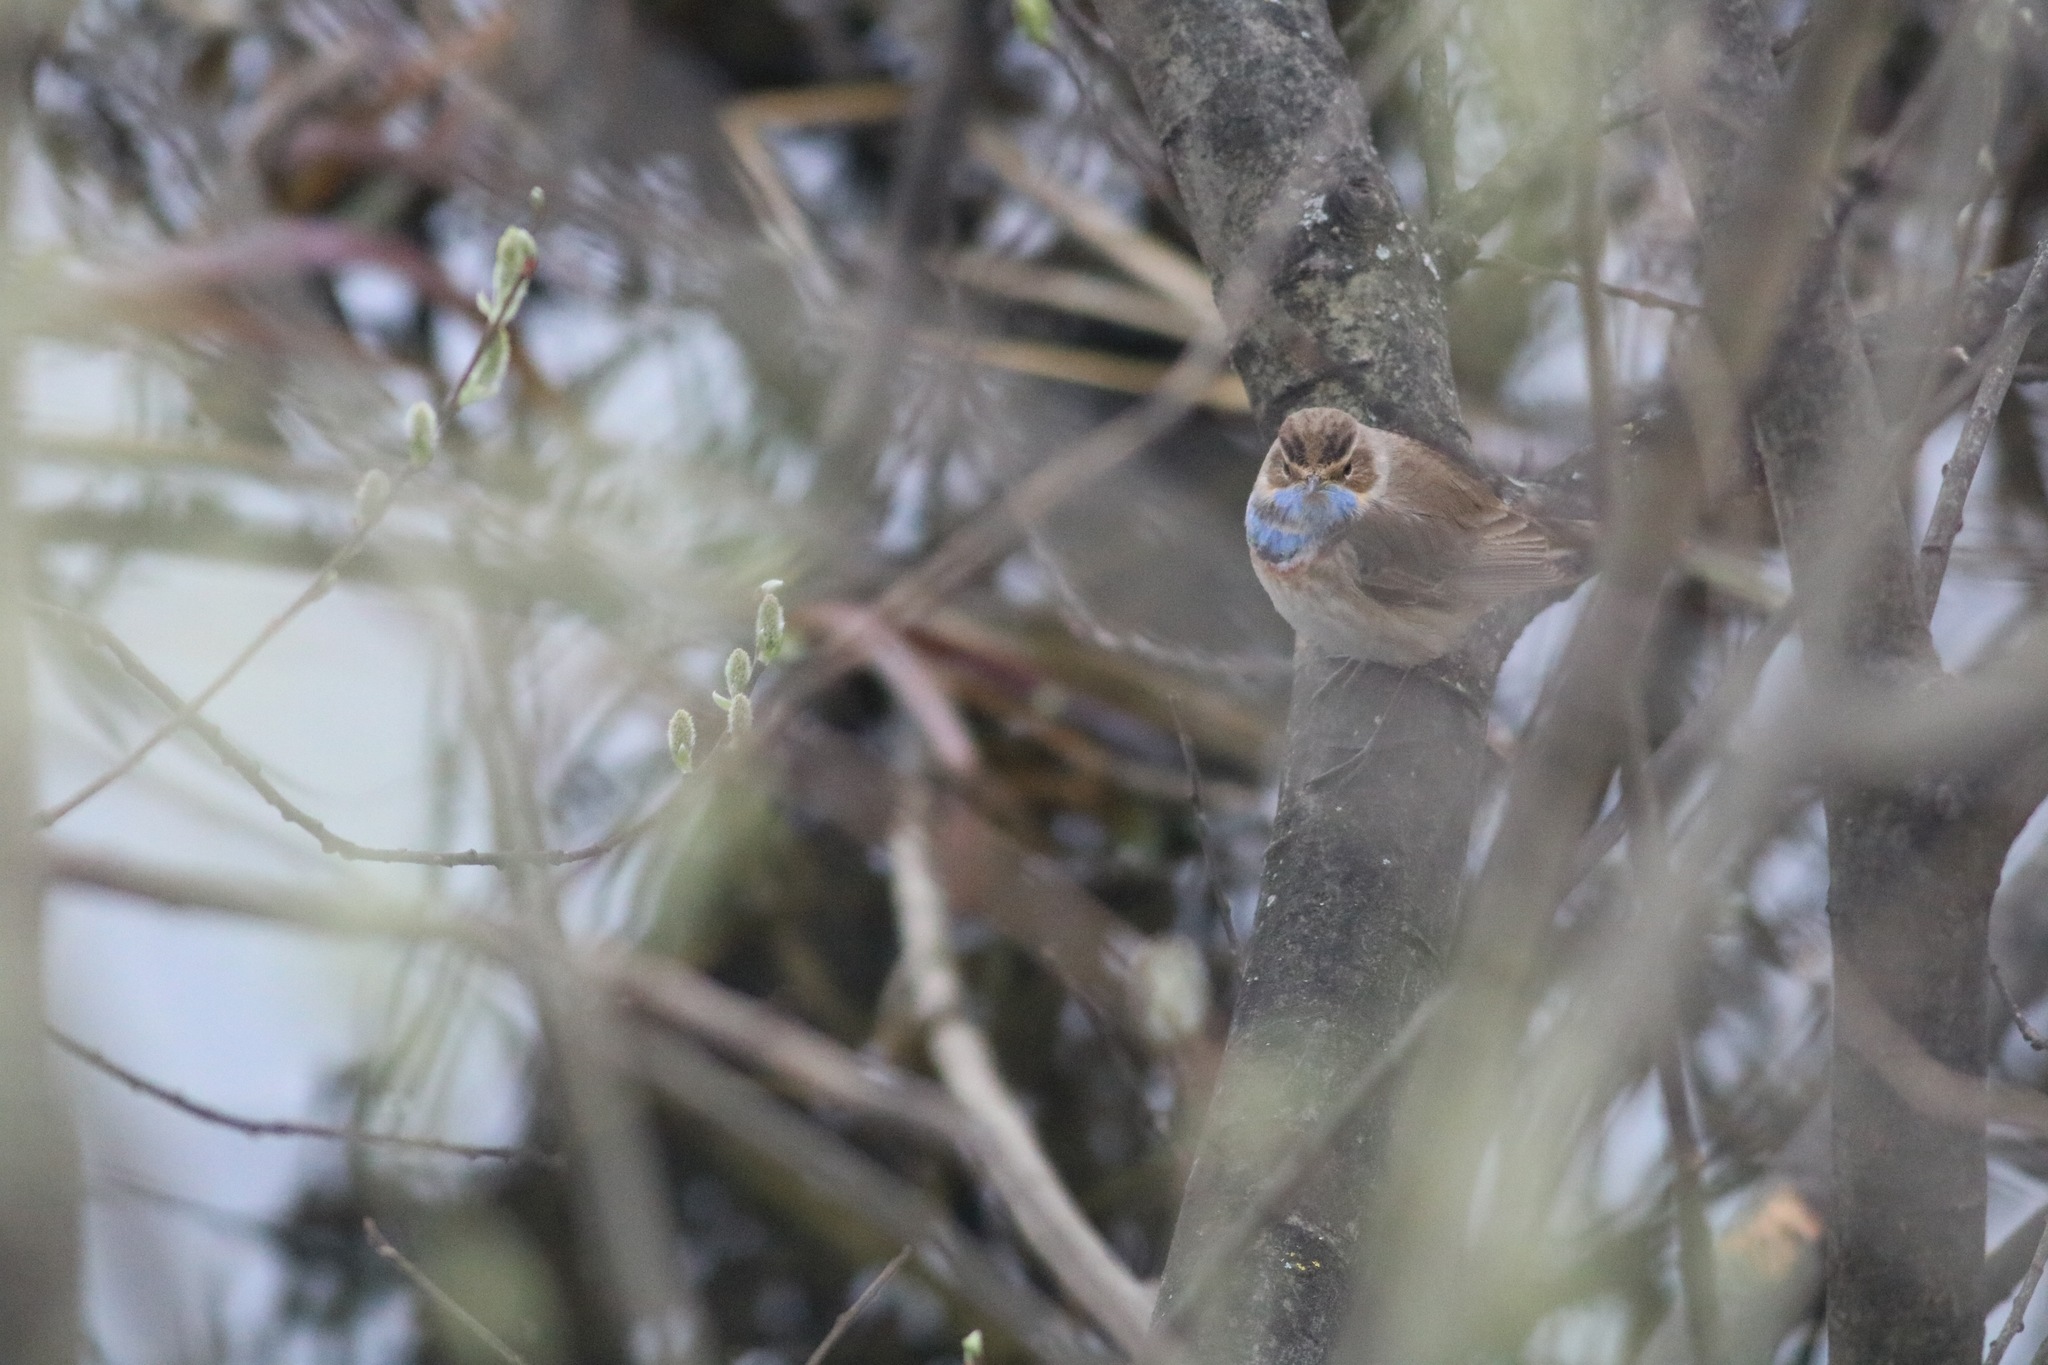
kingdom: Animalia
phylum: Chordata
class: Aves
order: Passeriformes
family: Muscicapidae
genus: Luscinia
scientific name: Luscinia svecica
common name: Bluethroat
